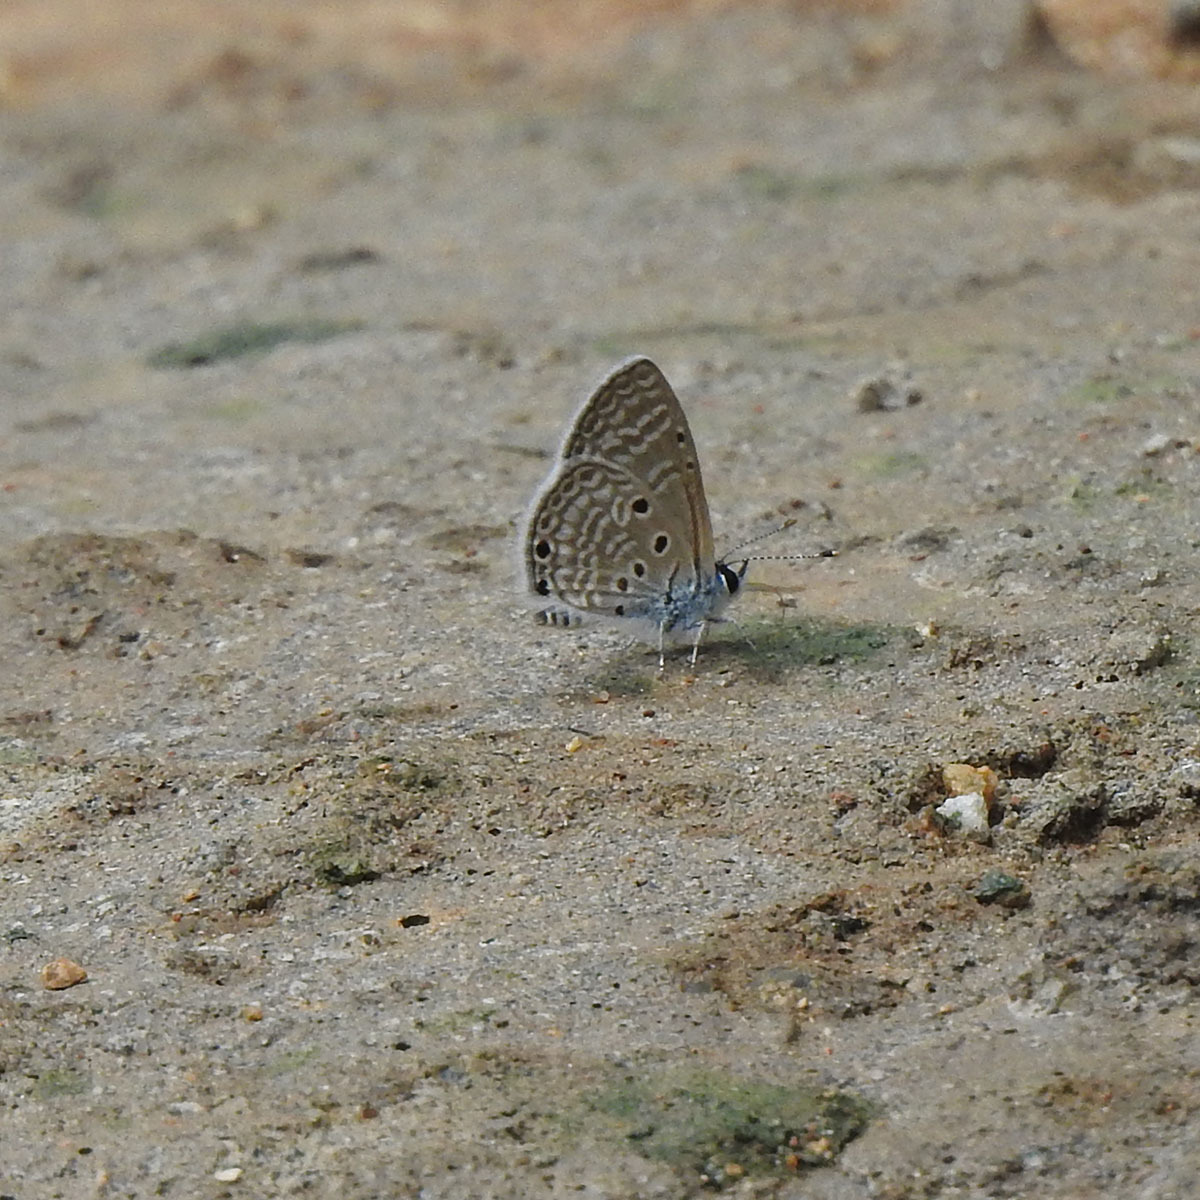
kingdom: Animalia
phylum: Arthropoda
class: Insecta
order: Lepidoptera
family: Lycaenidae
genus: Azanus
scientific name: Azanus ubaldus
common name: Desert babul blue
